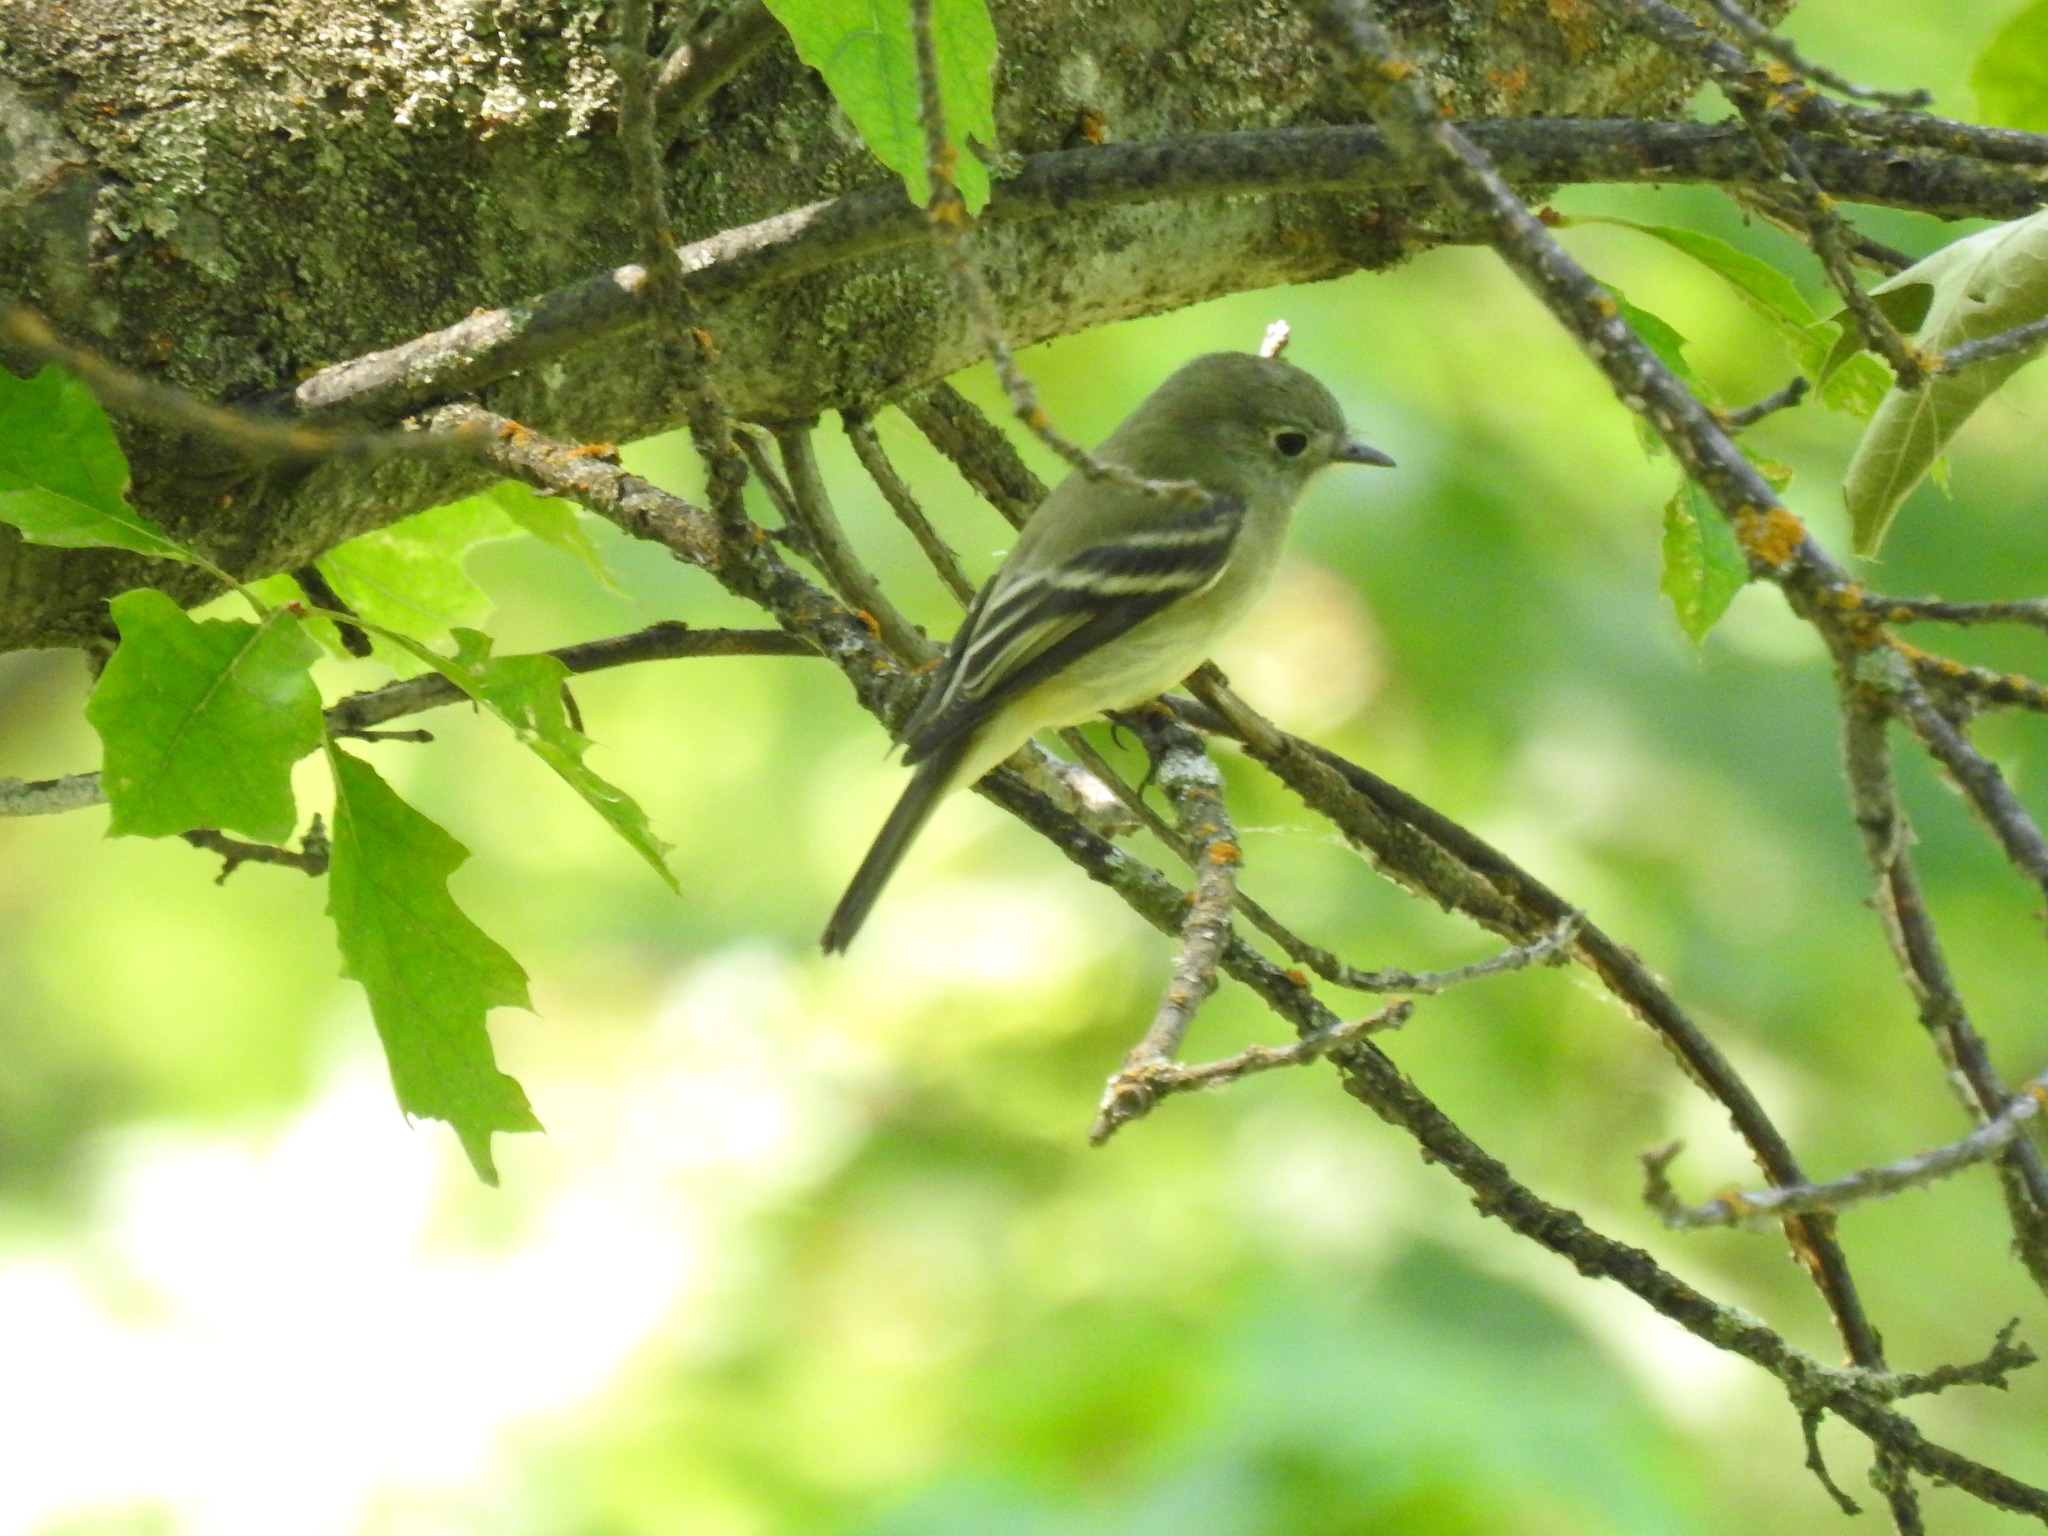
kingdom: Animalia
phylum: Chordata
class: Aves
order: Passeriformes
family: Tyrannidae
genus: Empidonax
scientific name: Empidonax hammondii
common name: Hammond's flycatcher
